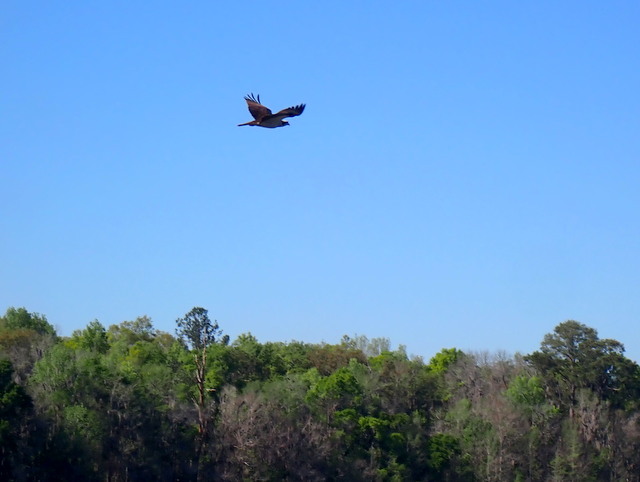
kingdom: Animalia
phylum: Chordata
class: Aves
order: Accipitriformes
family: Pandionidae
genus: Pandion
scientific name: Pandion haliaetus
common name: Osprey
